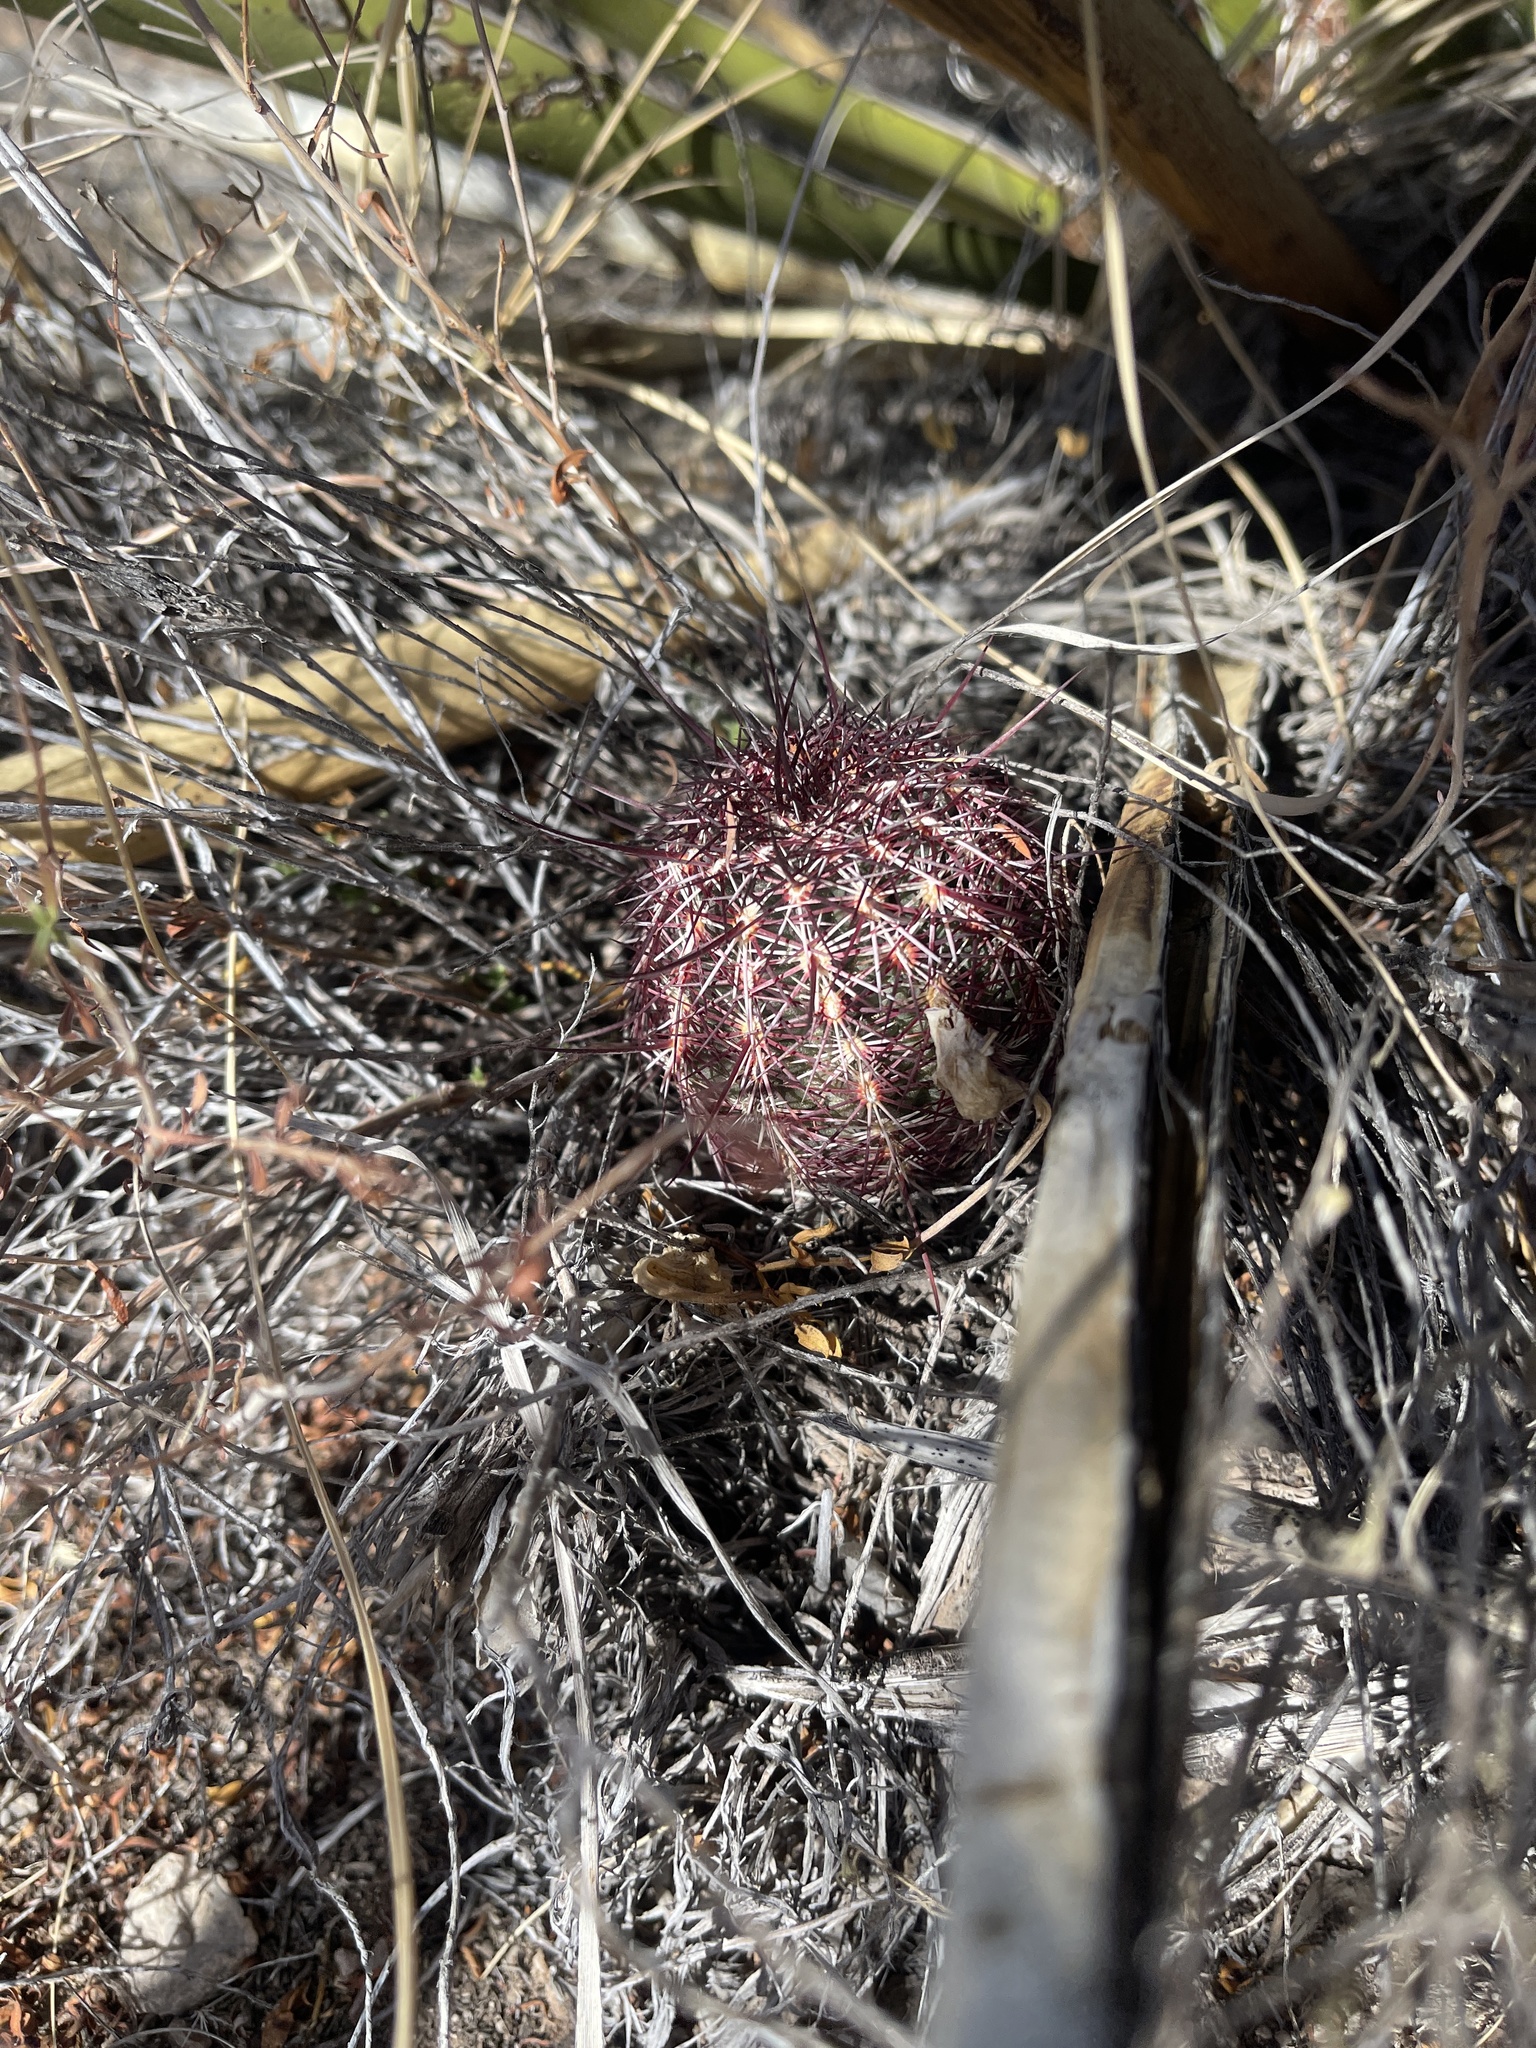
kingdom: Plantae
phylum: Tracheophyta
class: Magnoliopsida
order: Caryophyllales
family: Cactaceae
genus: Echinocereus
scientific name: Echinocereus viridiflorus
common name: Nylon hedgehog cactus
